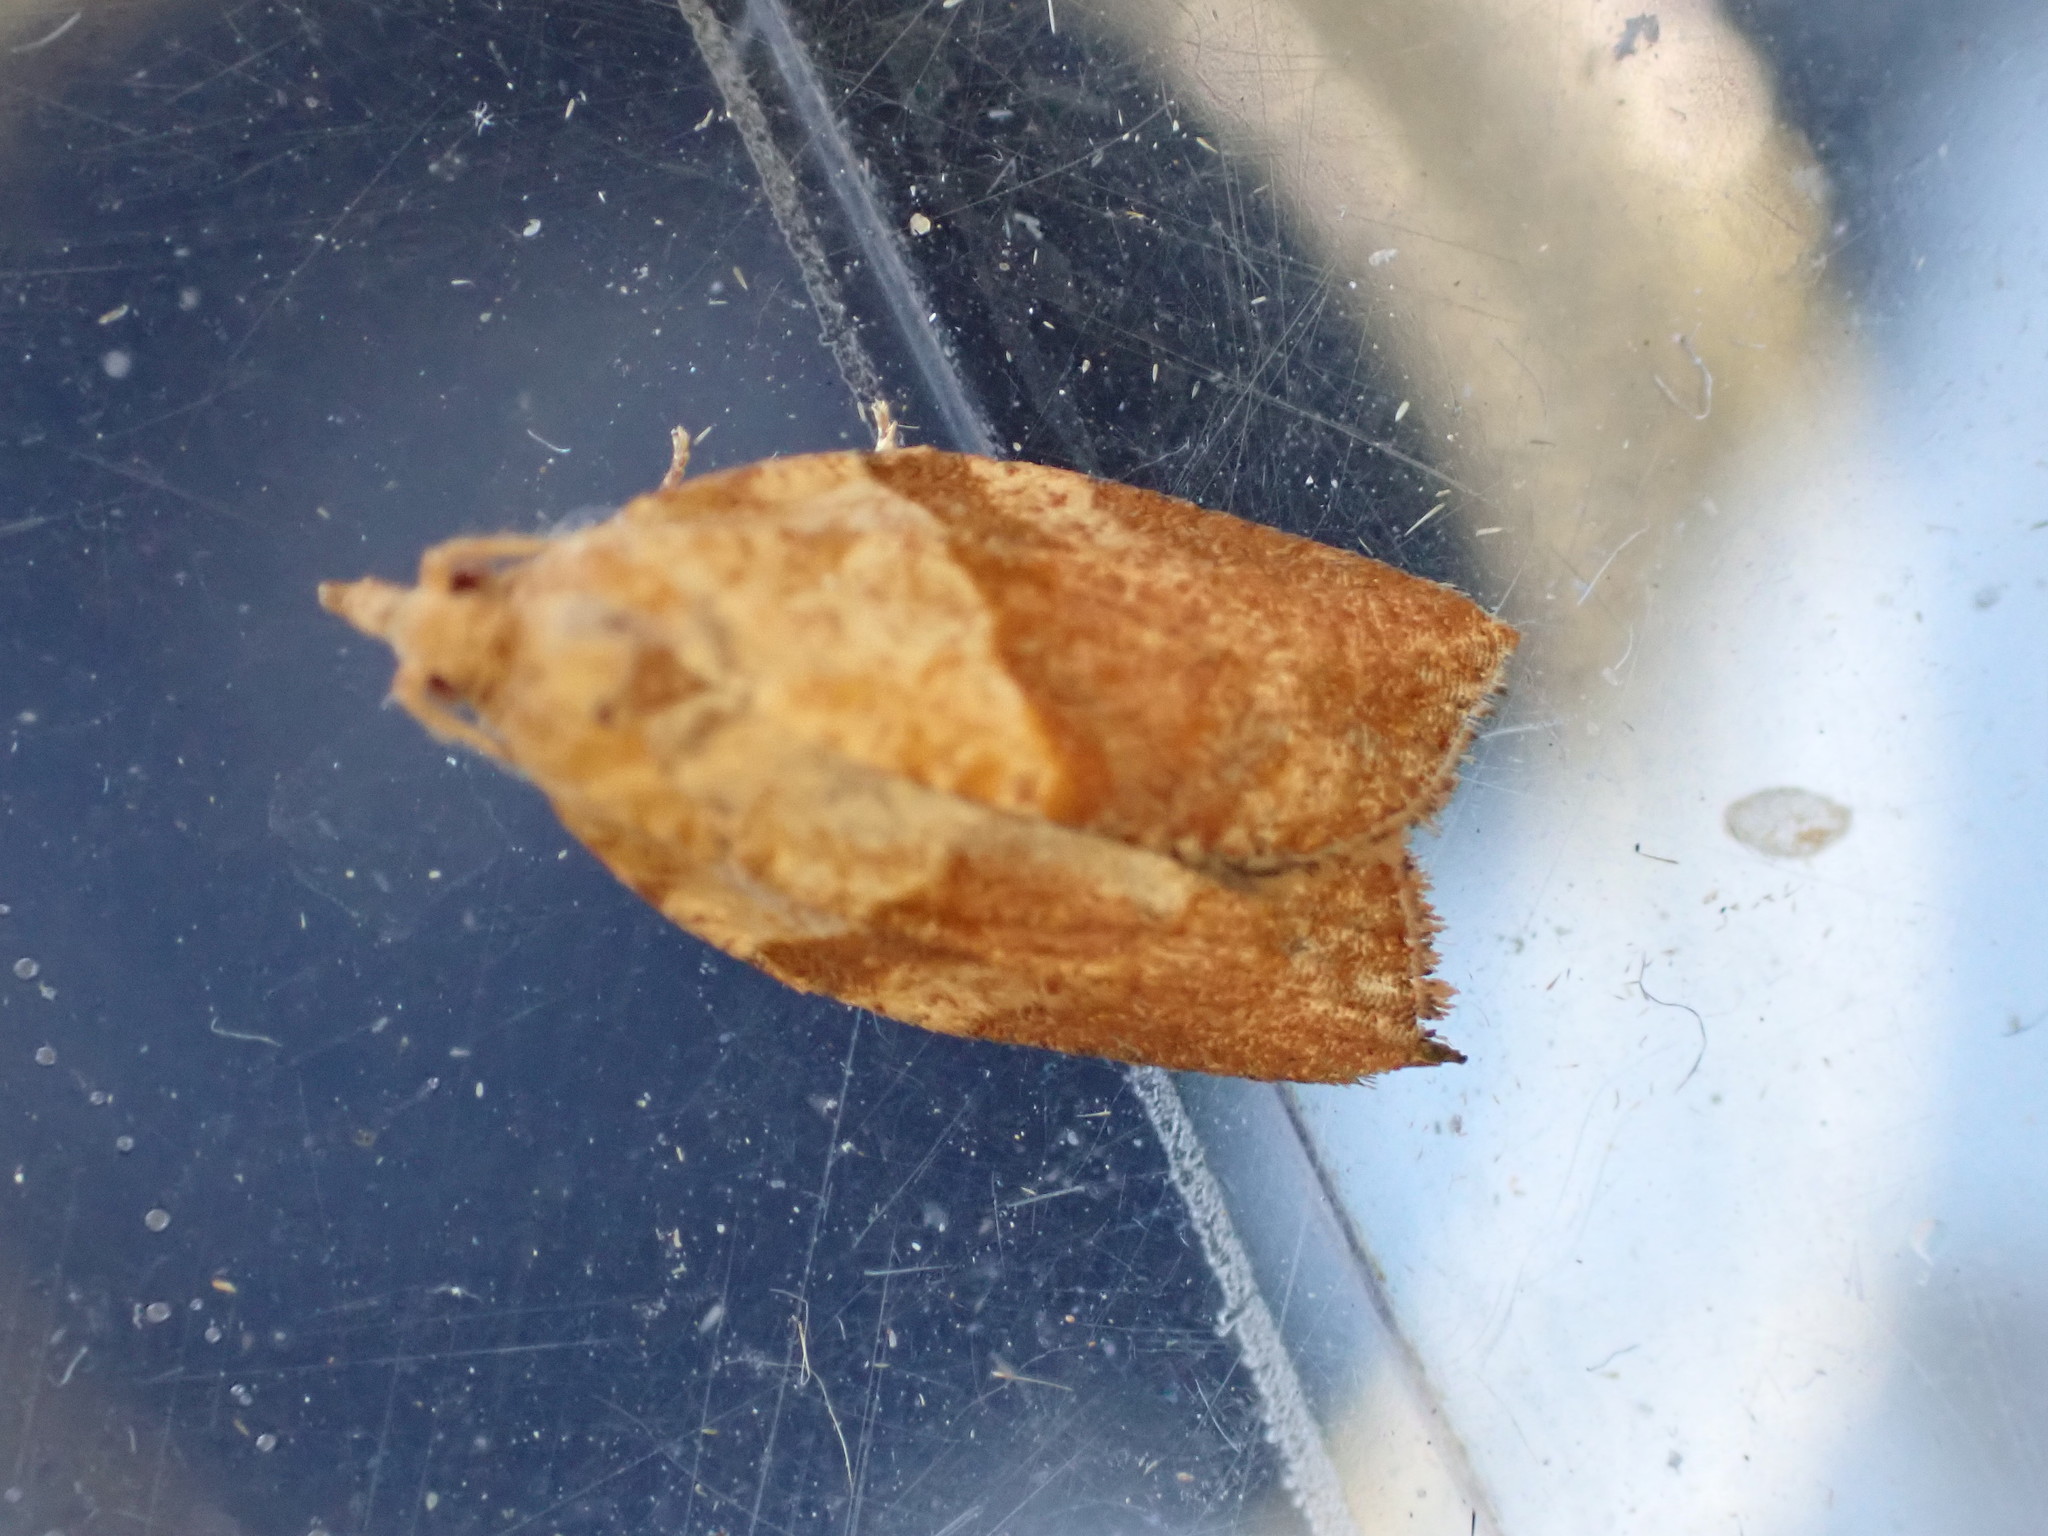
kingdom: Animalia
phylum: Arthropoda
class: Insecta
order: Lepidoptera
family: Tortricidae
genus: Epiphyas
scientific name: Epiphyas postvittana
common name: Light brown apple moth
